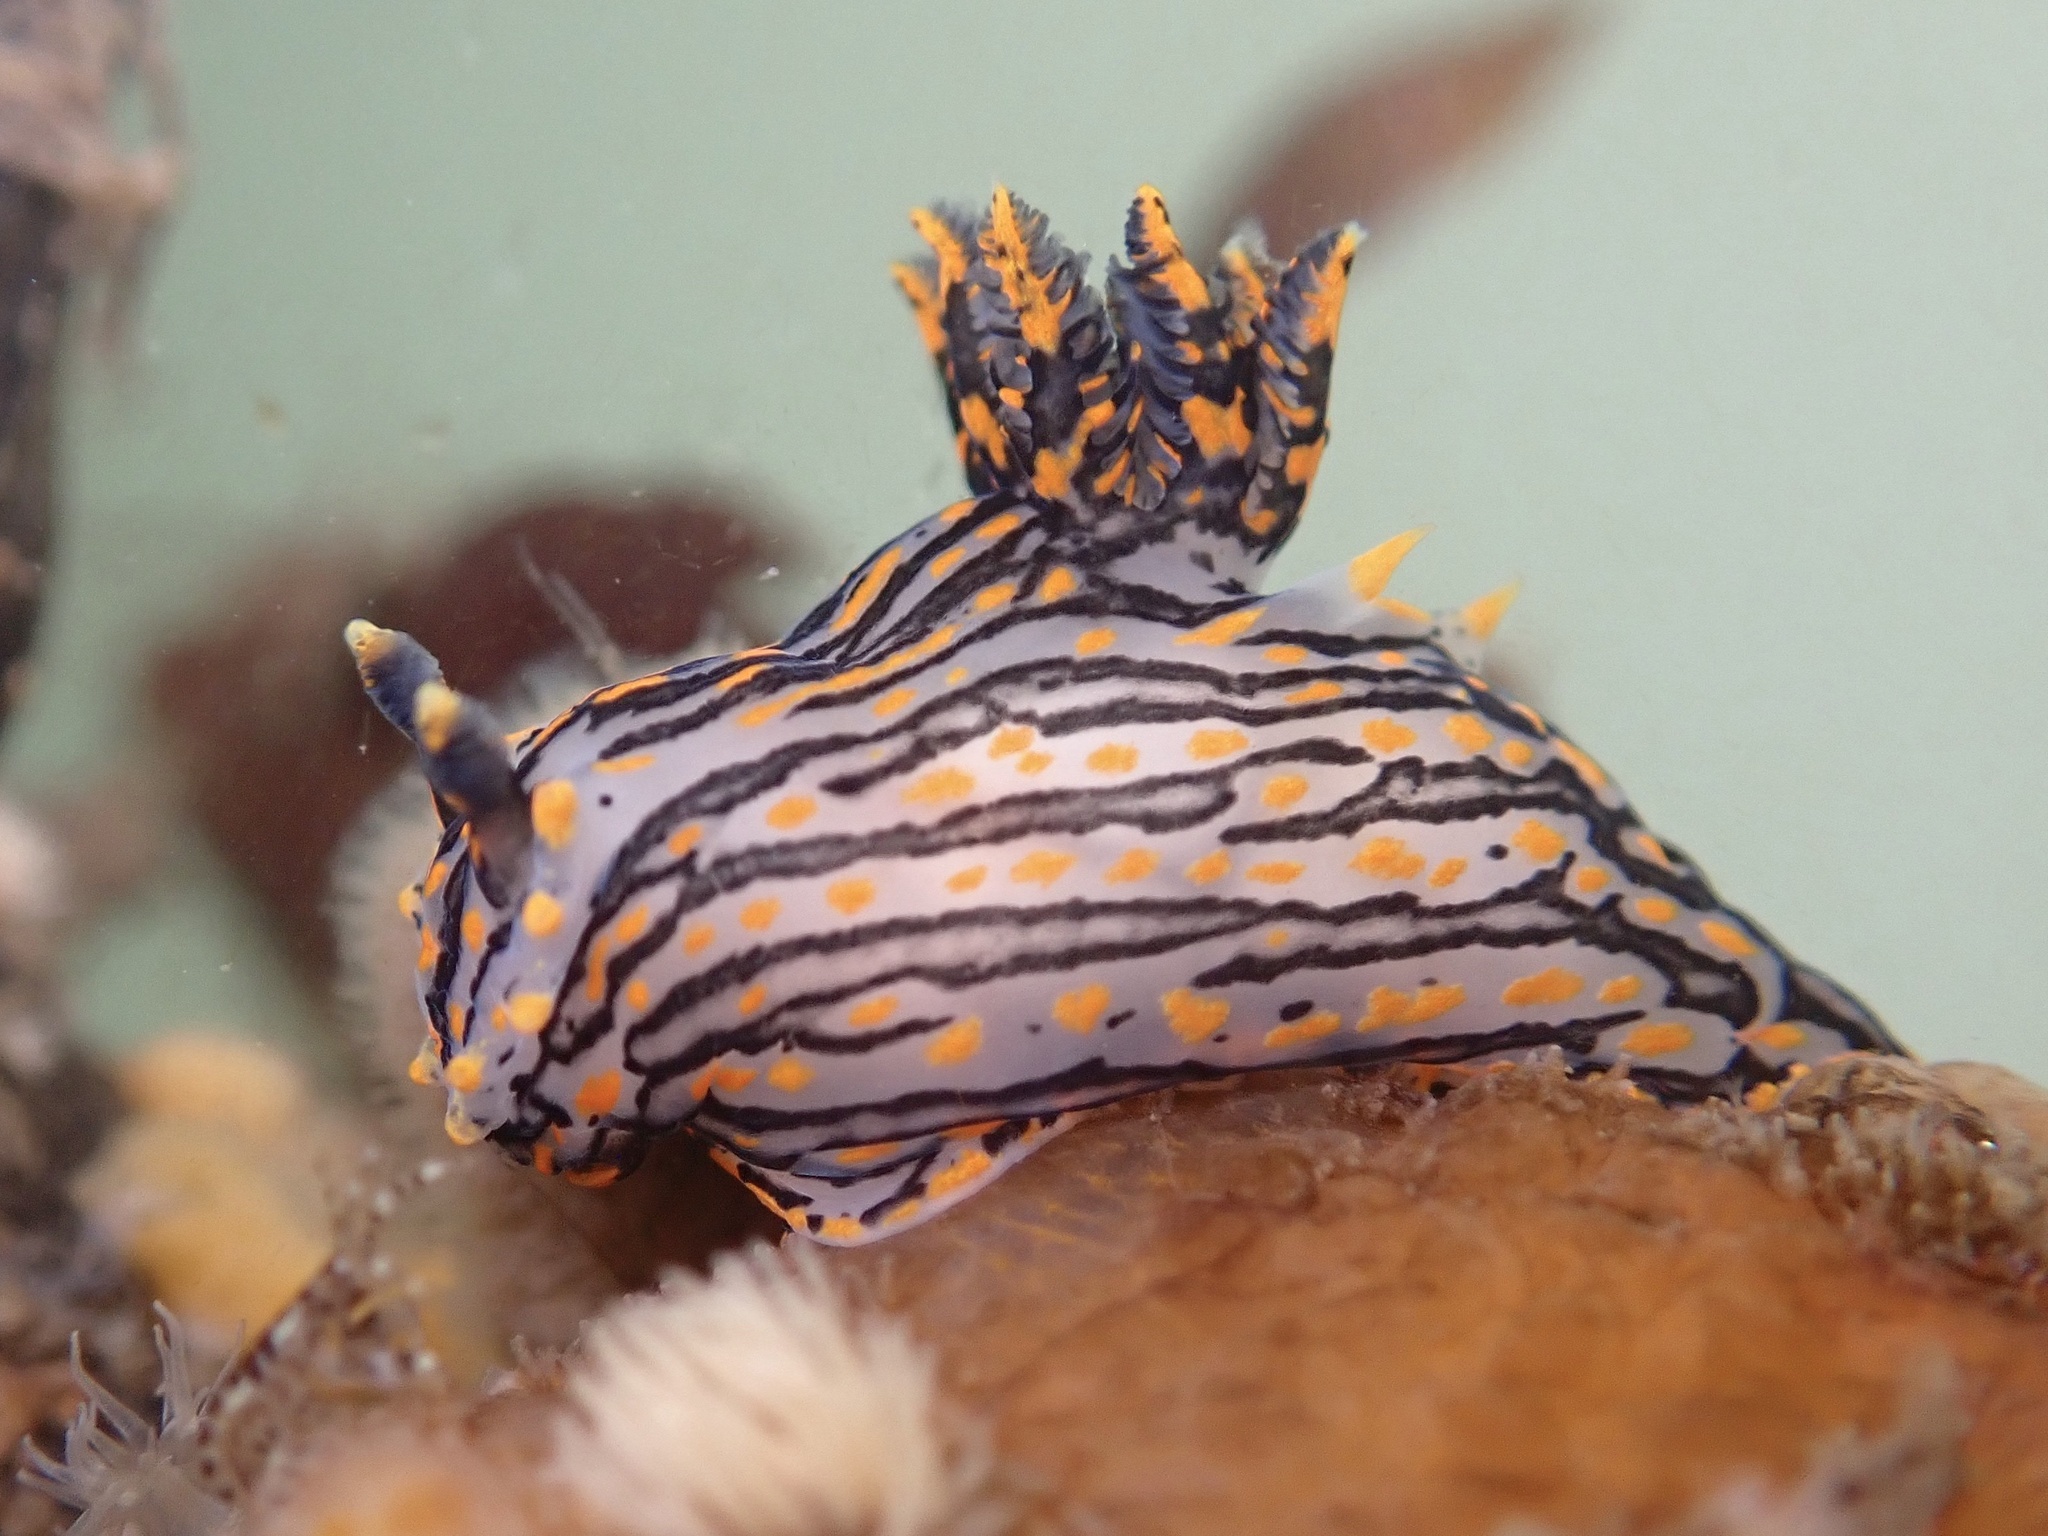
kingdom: Animalia
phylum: Mollusca
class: Gastropoda
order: Nudibranchia
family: Polyceridae
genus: Polycera
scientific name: Polycera atra
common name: Orange-spike polycera
